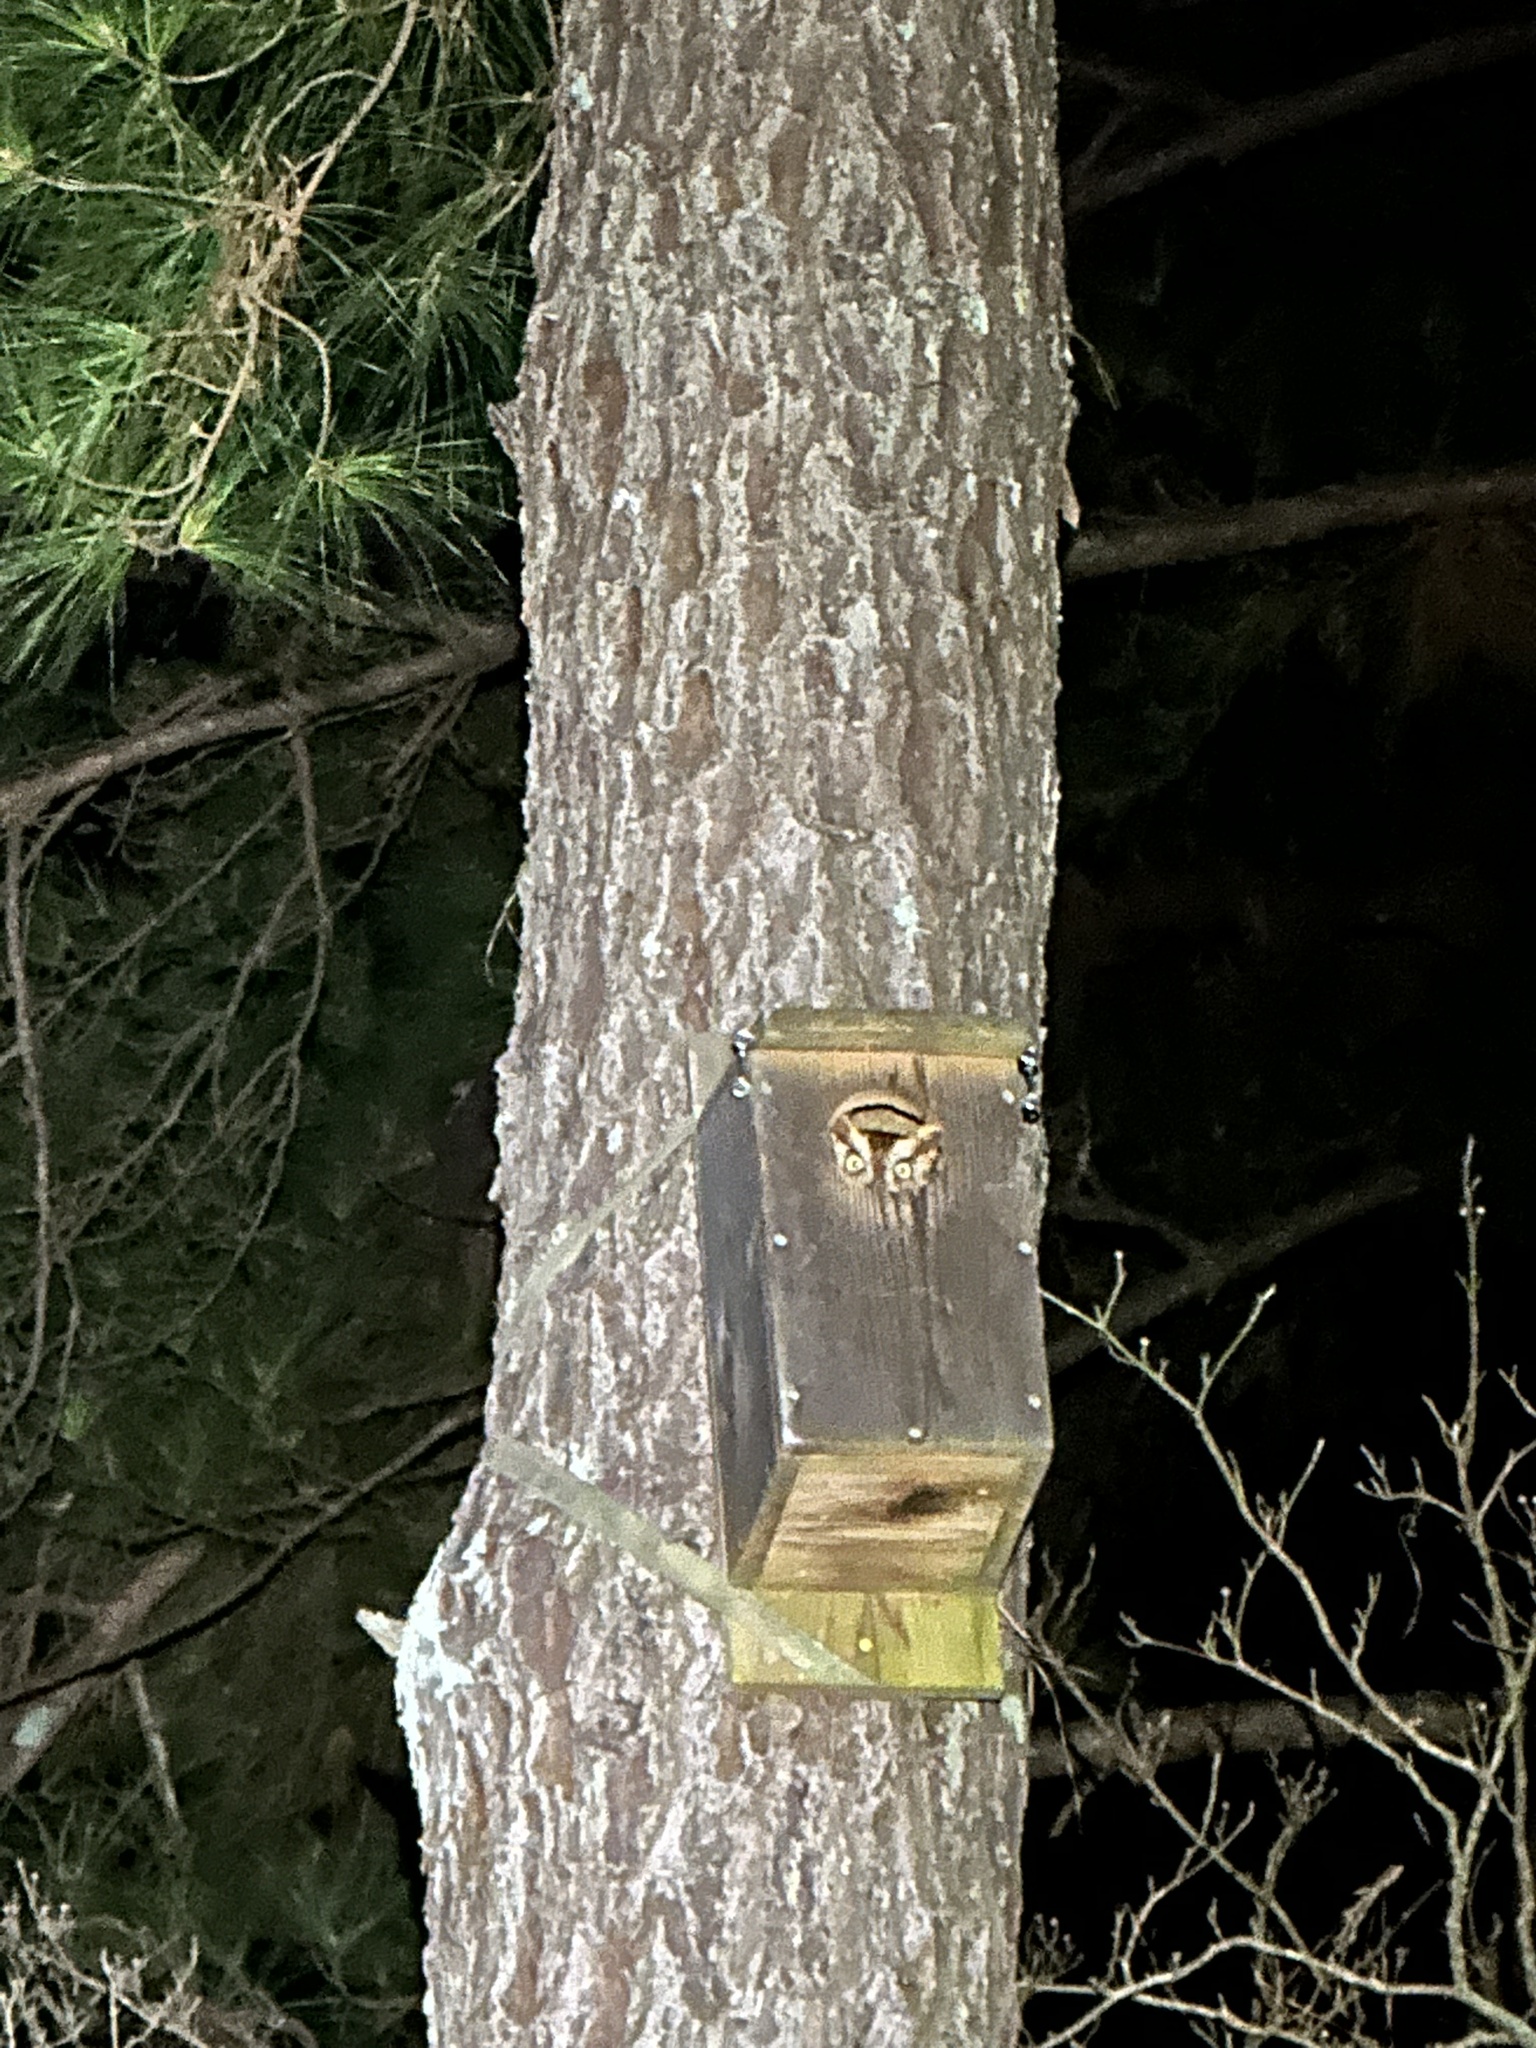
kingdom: Animalia
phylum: Chordata
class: Aves
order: Strigiformes
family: Strigidae
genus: Megascops
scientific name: Megascops asio
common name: Eastern screech-owl
